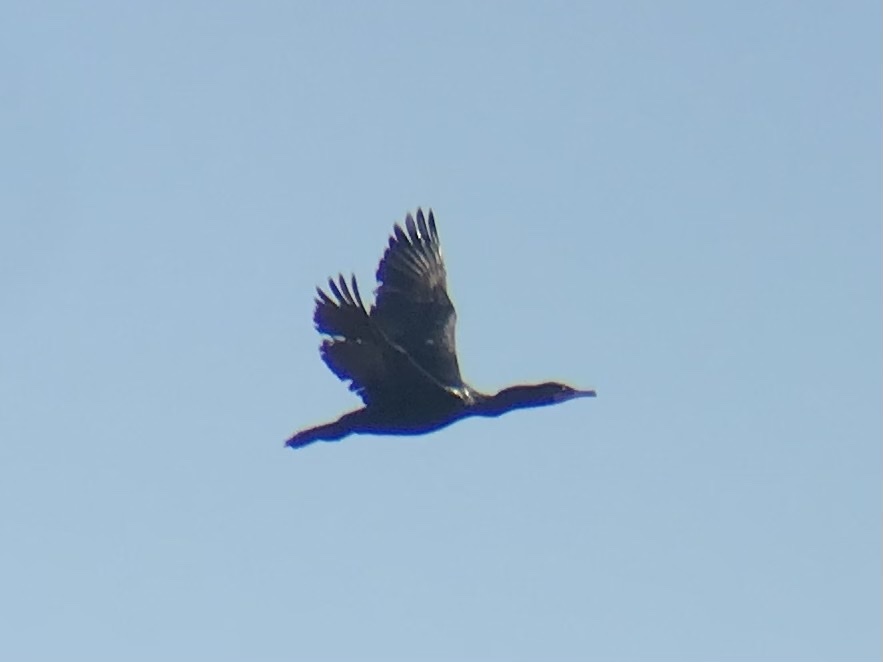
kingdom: Animalia
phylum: Chordata
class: Aves
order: Suliformes
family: Phalacrocoracidae
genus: Phalacrocorax
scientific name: Phalacrocorax auritus
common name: Double-crested cormorant
